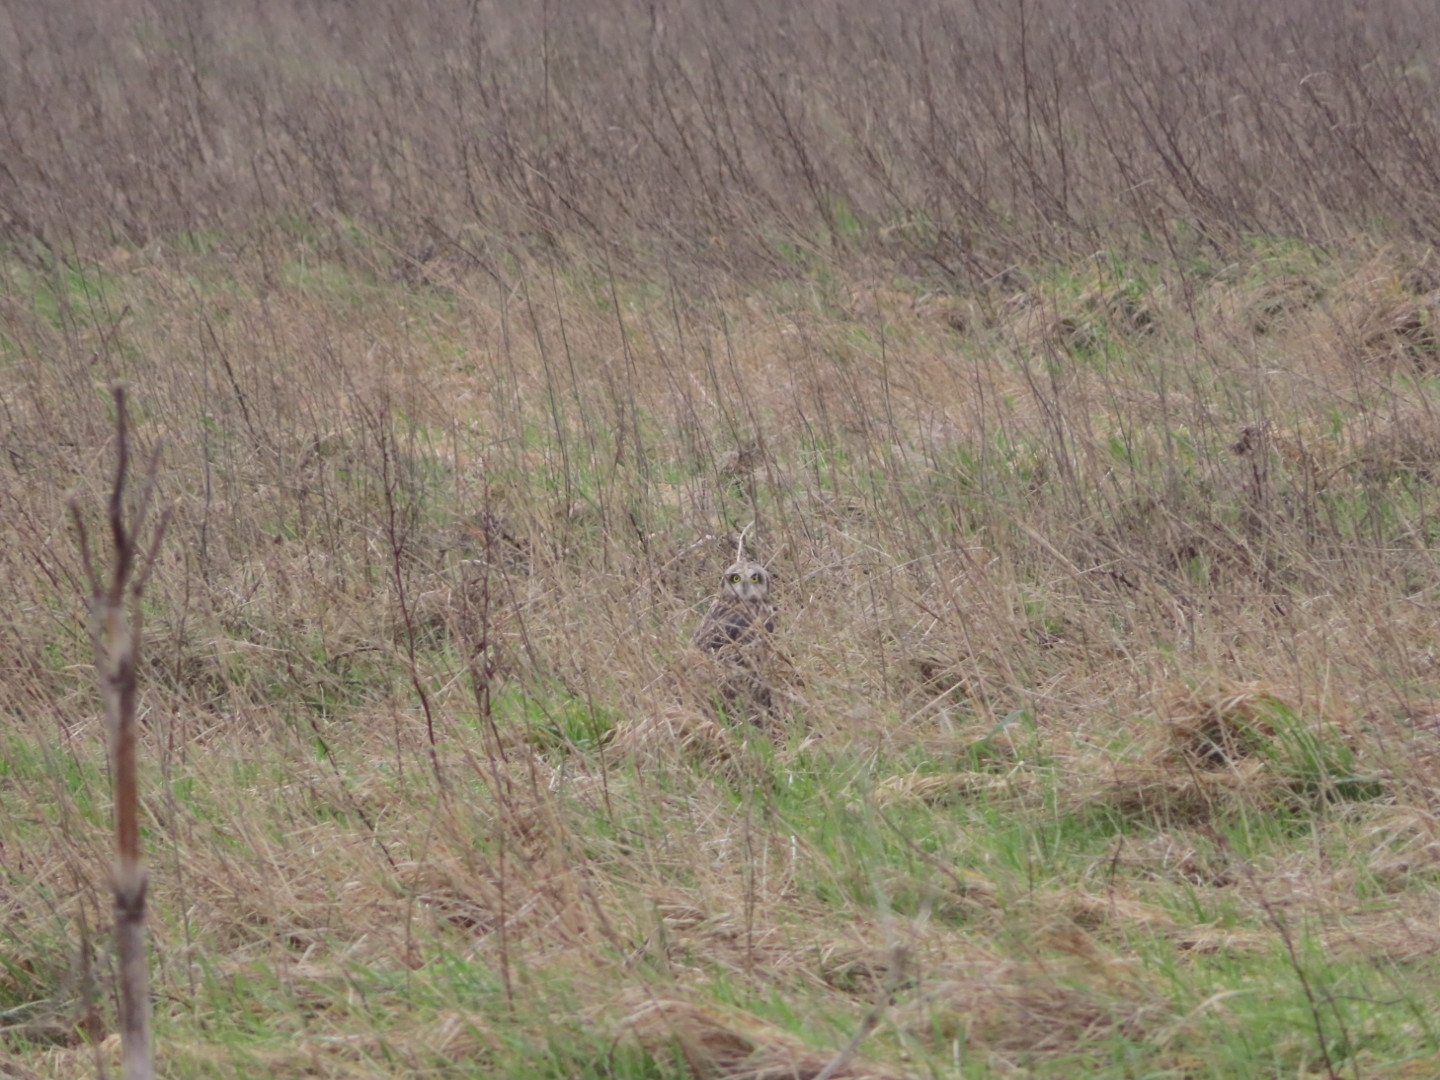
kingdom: Animalia
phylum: Chordata
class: Aves
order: Strigiformes
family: Strigidae
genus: Asio
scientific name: Asio flammeus
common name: Short-eared owl
